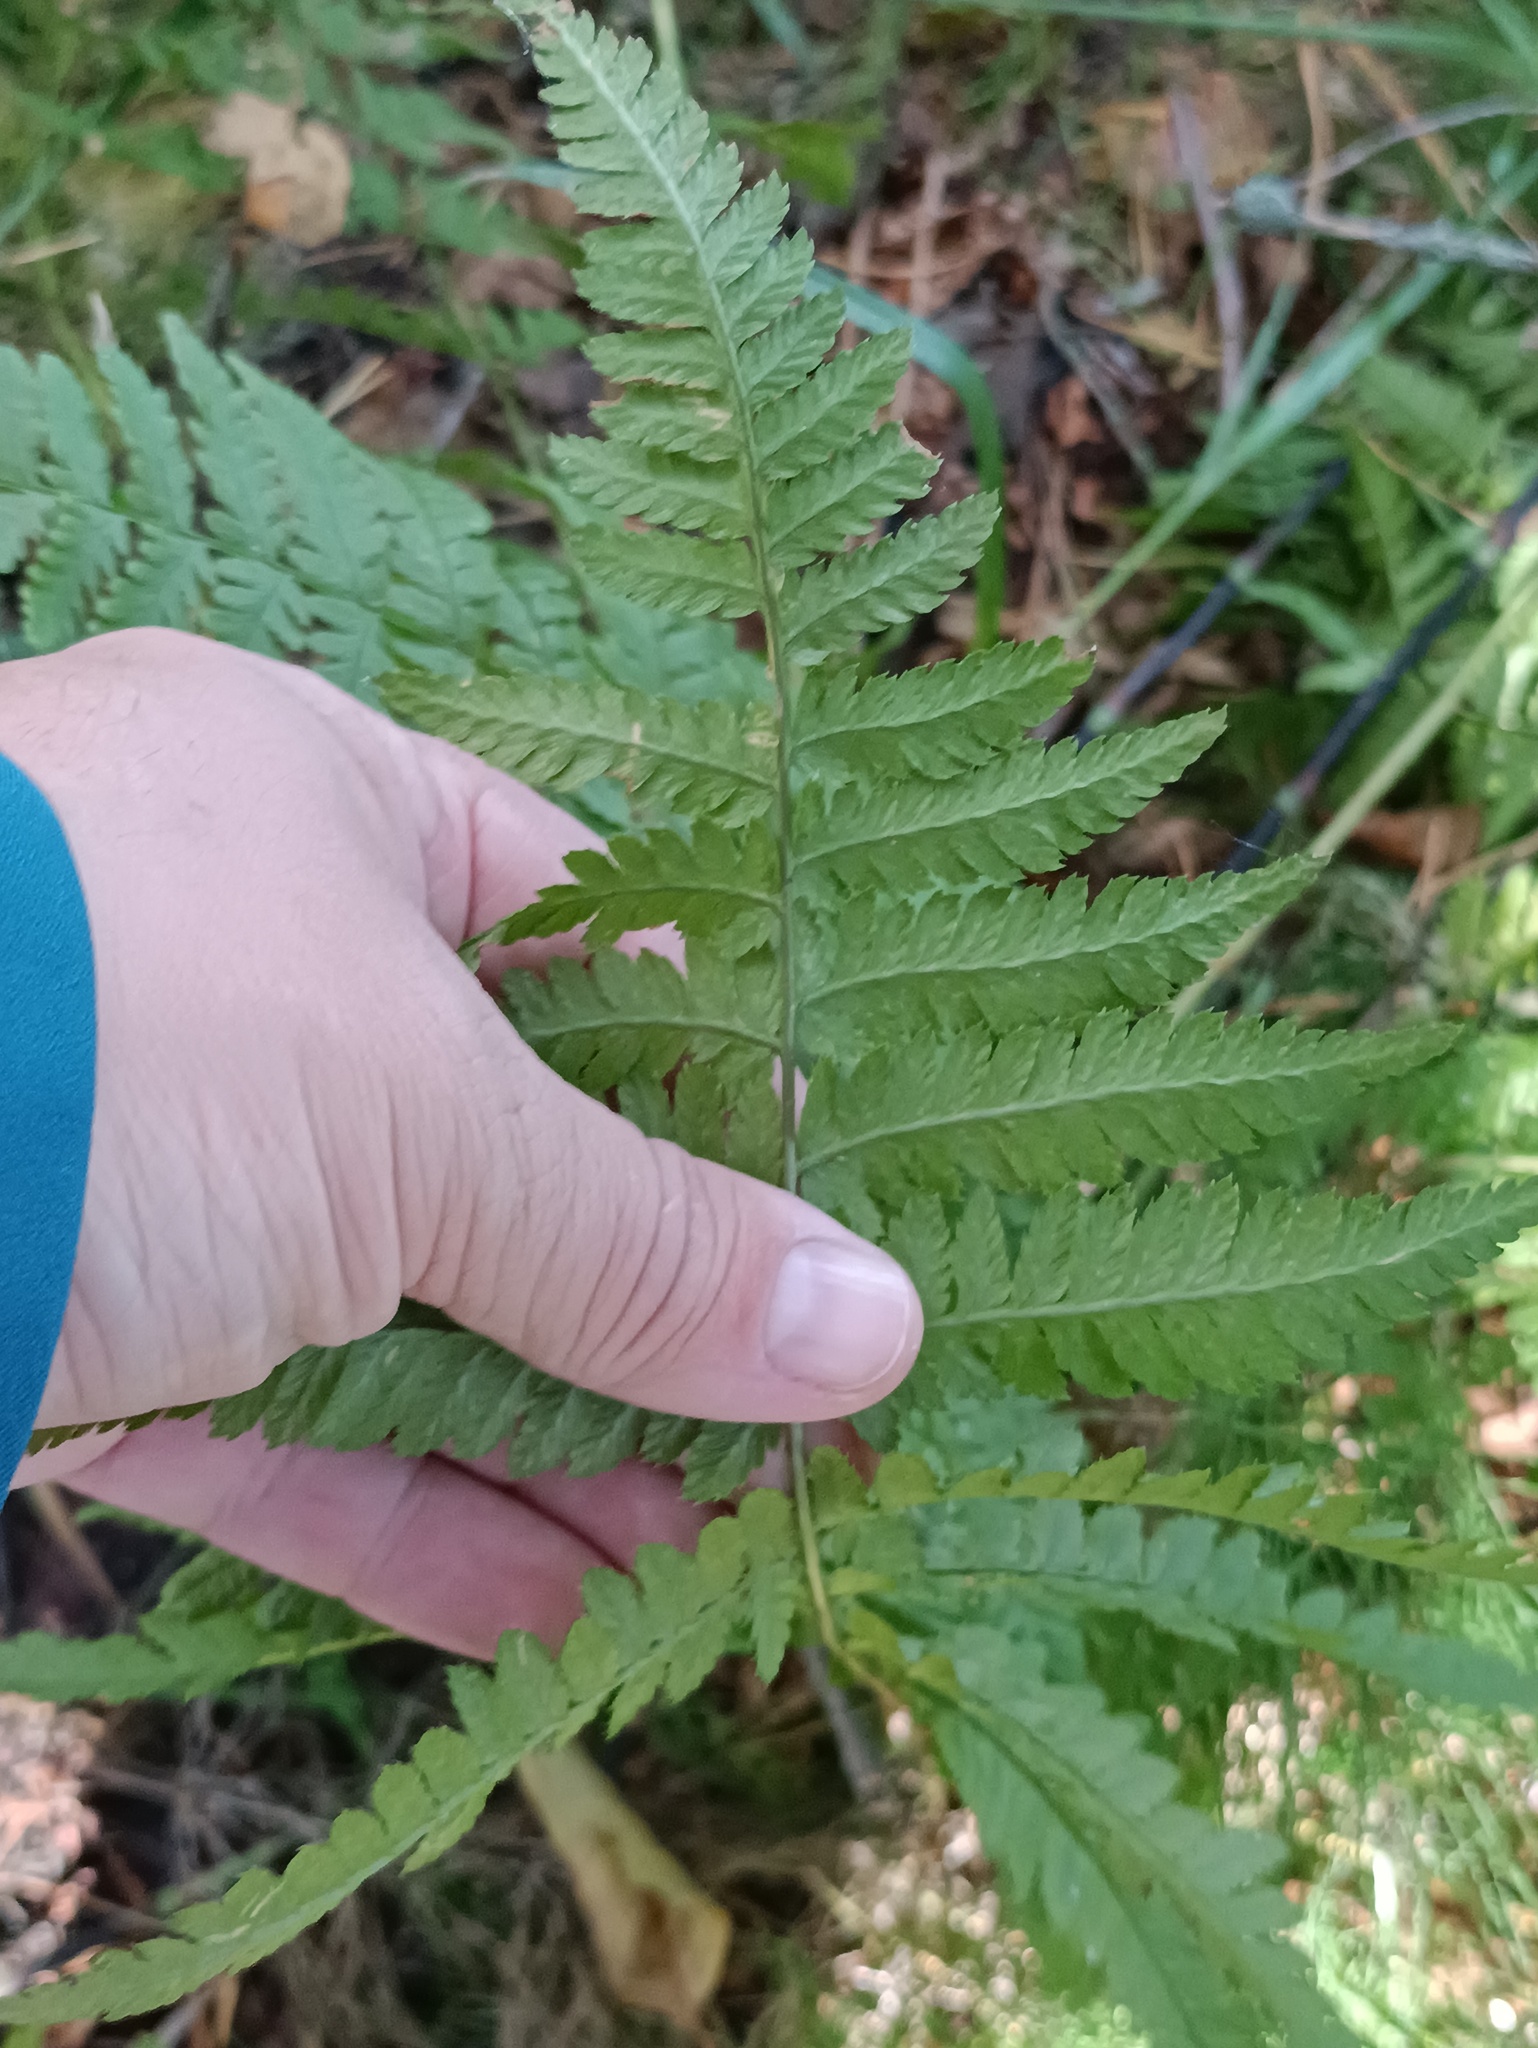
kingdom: Plantae
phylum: Tracheophyta
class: Polypodiopsida
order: Polypodiales
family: Dryopteridaceae
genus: Dryopteris
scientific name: Dryopteris carthusiana
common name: Narrow buckler-fern
